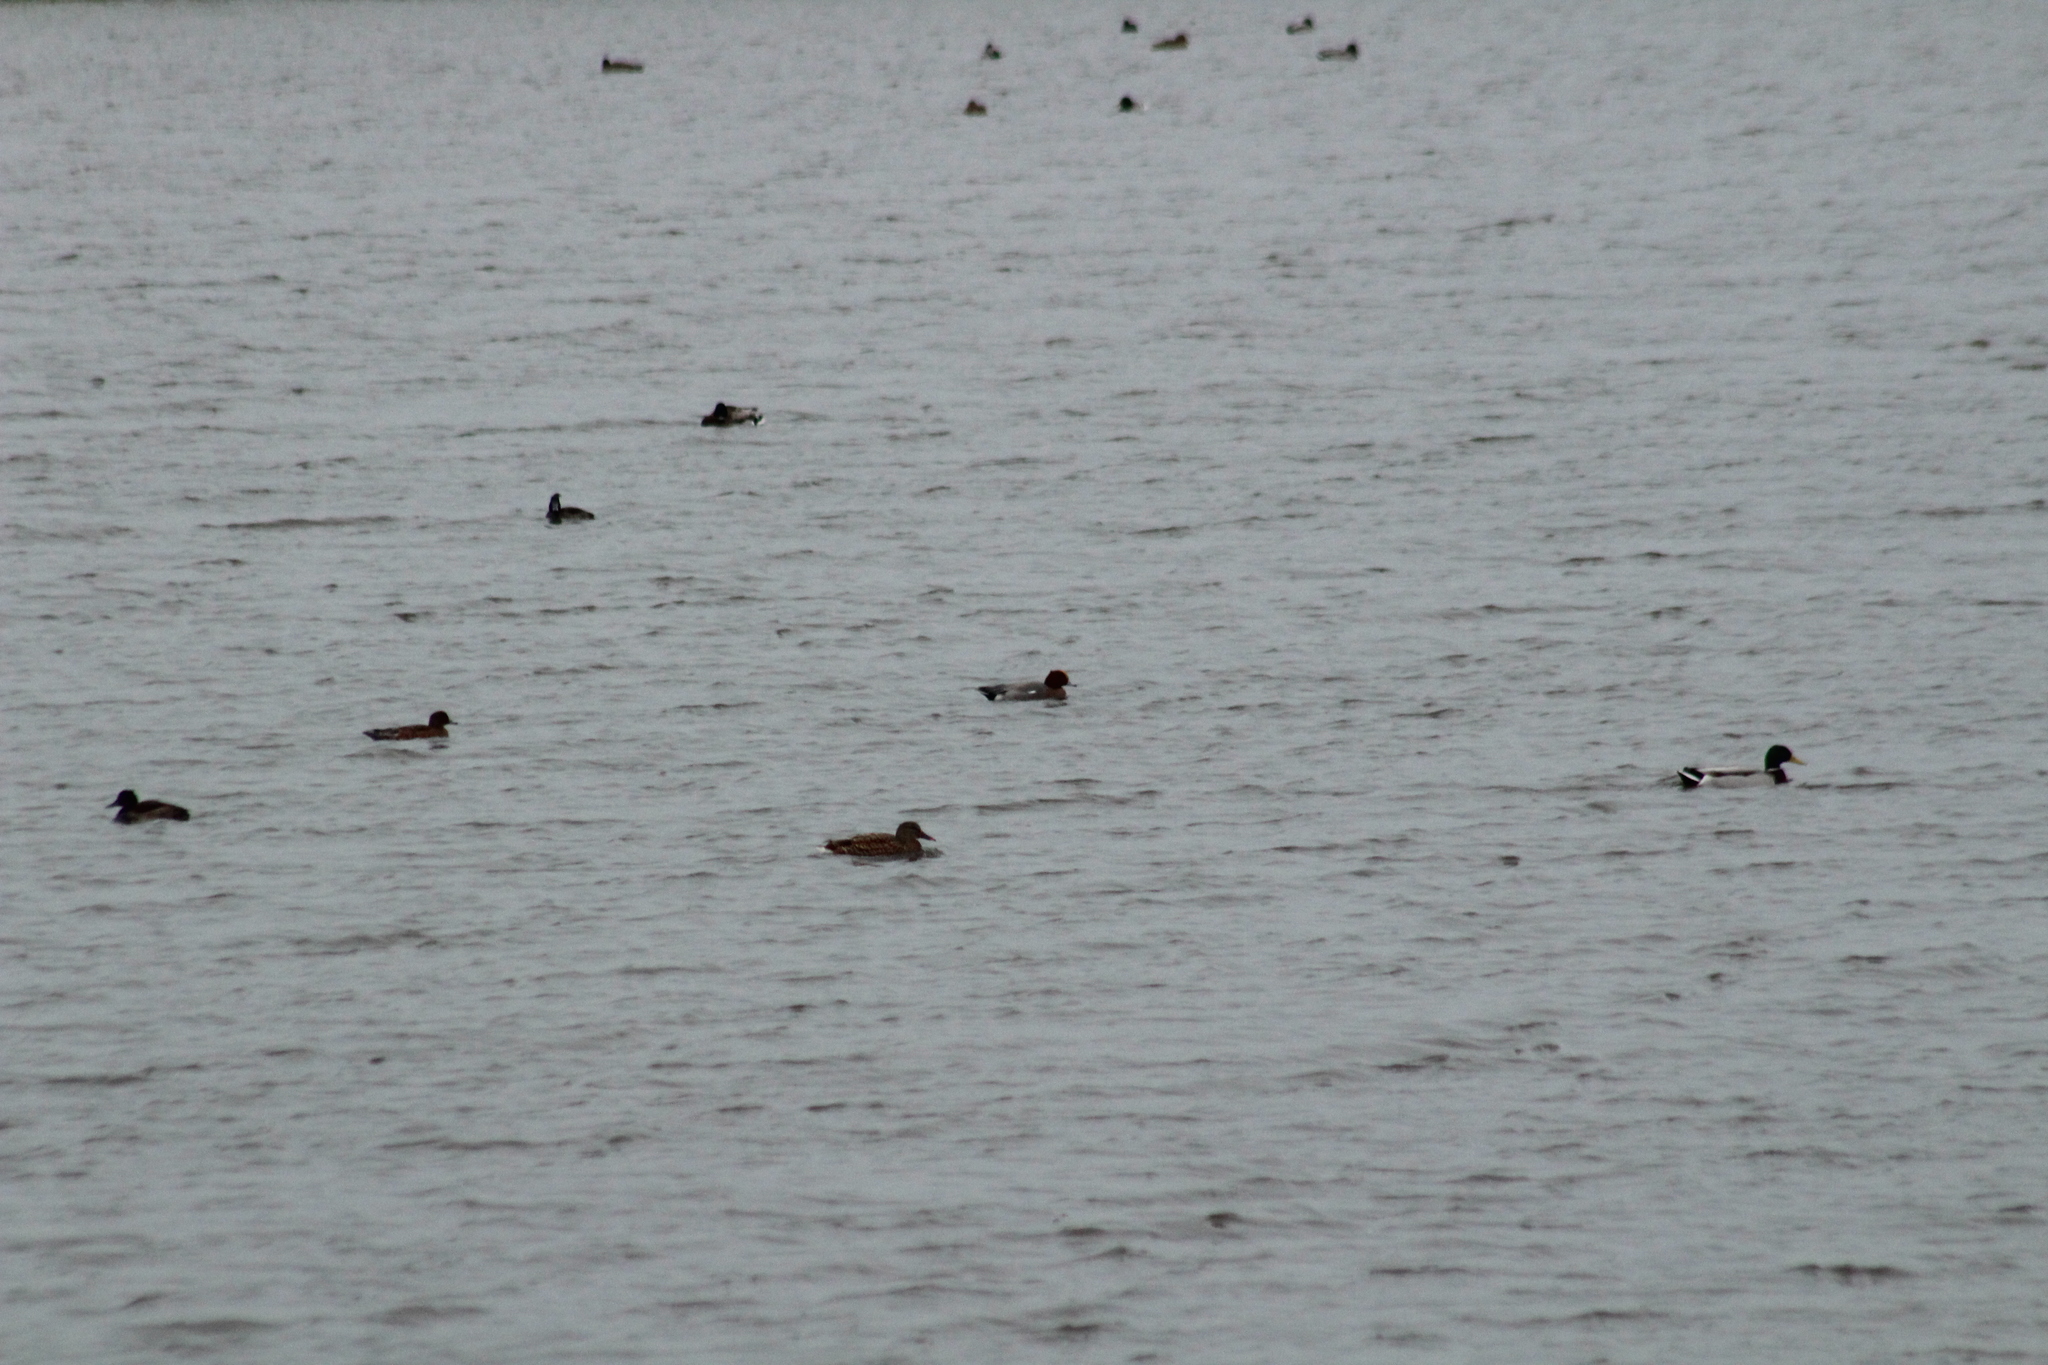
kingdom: Animalia
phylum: Chordata
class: Aves
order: Anseriformes
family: Anatidae
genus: Mareca
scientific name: Mareca penelope
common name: Eurasian wigeon
